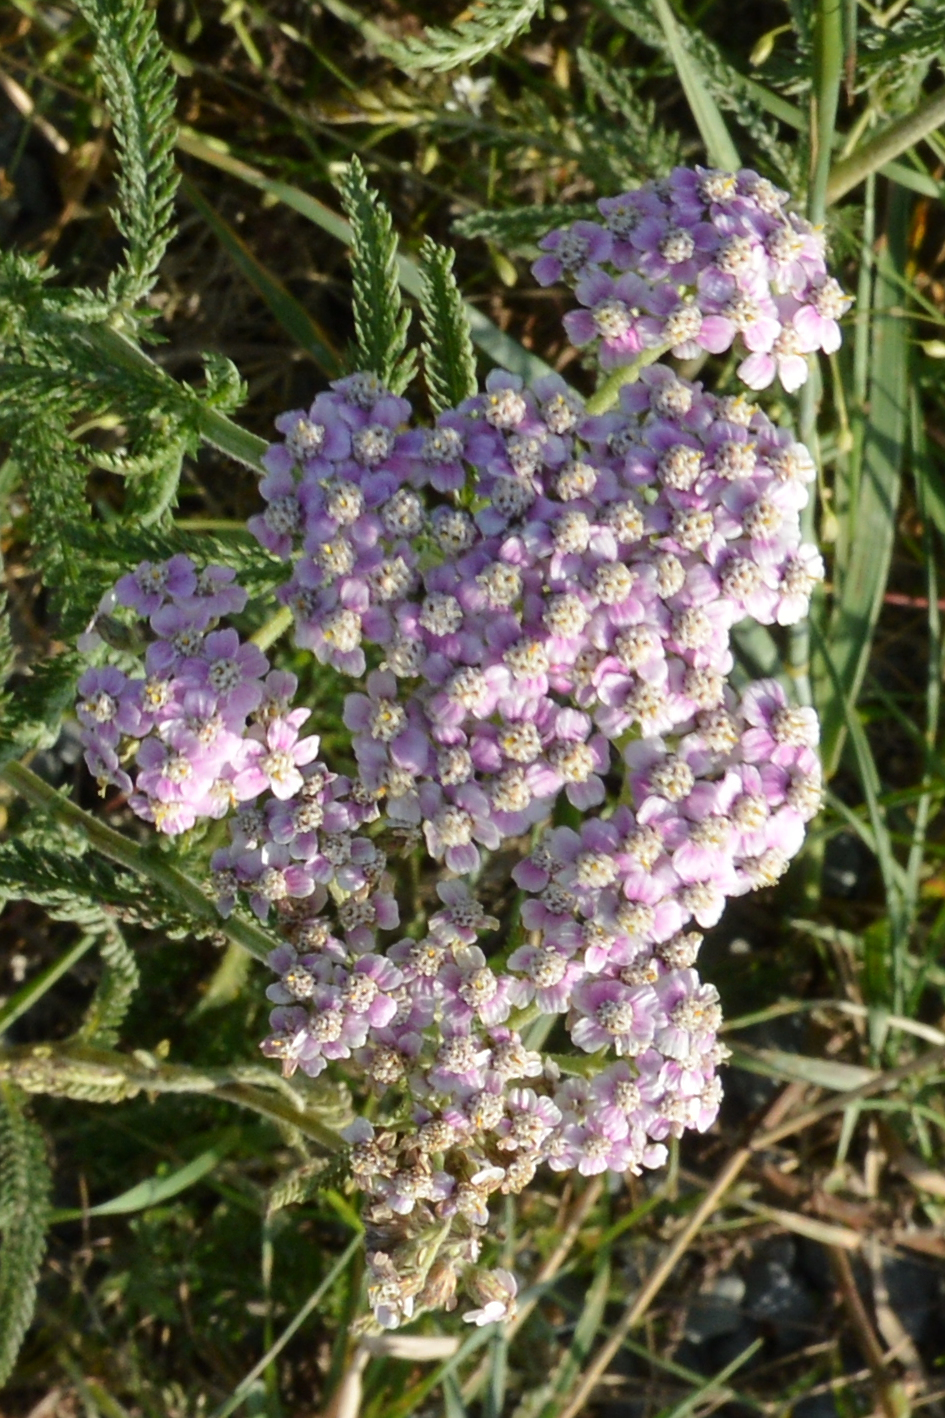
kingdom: Plantae
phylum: Tracheophyta
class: Magnoliopsida
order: Asterales
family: Asteraceae
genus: Achillea
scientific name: Achillea millefolium
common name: Yarrow
